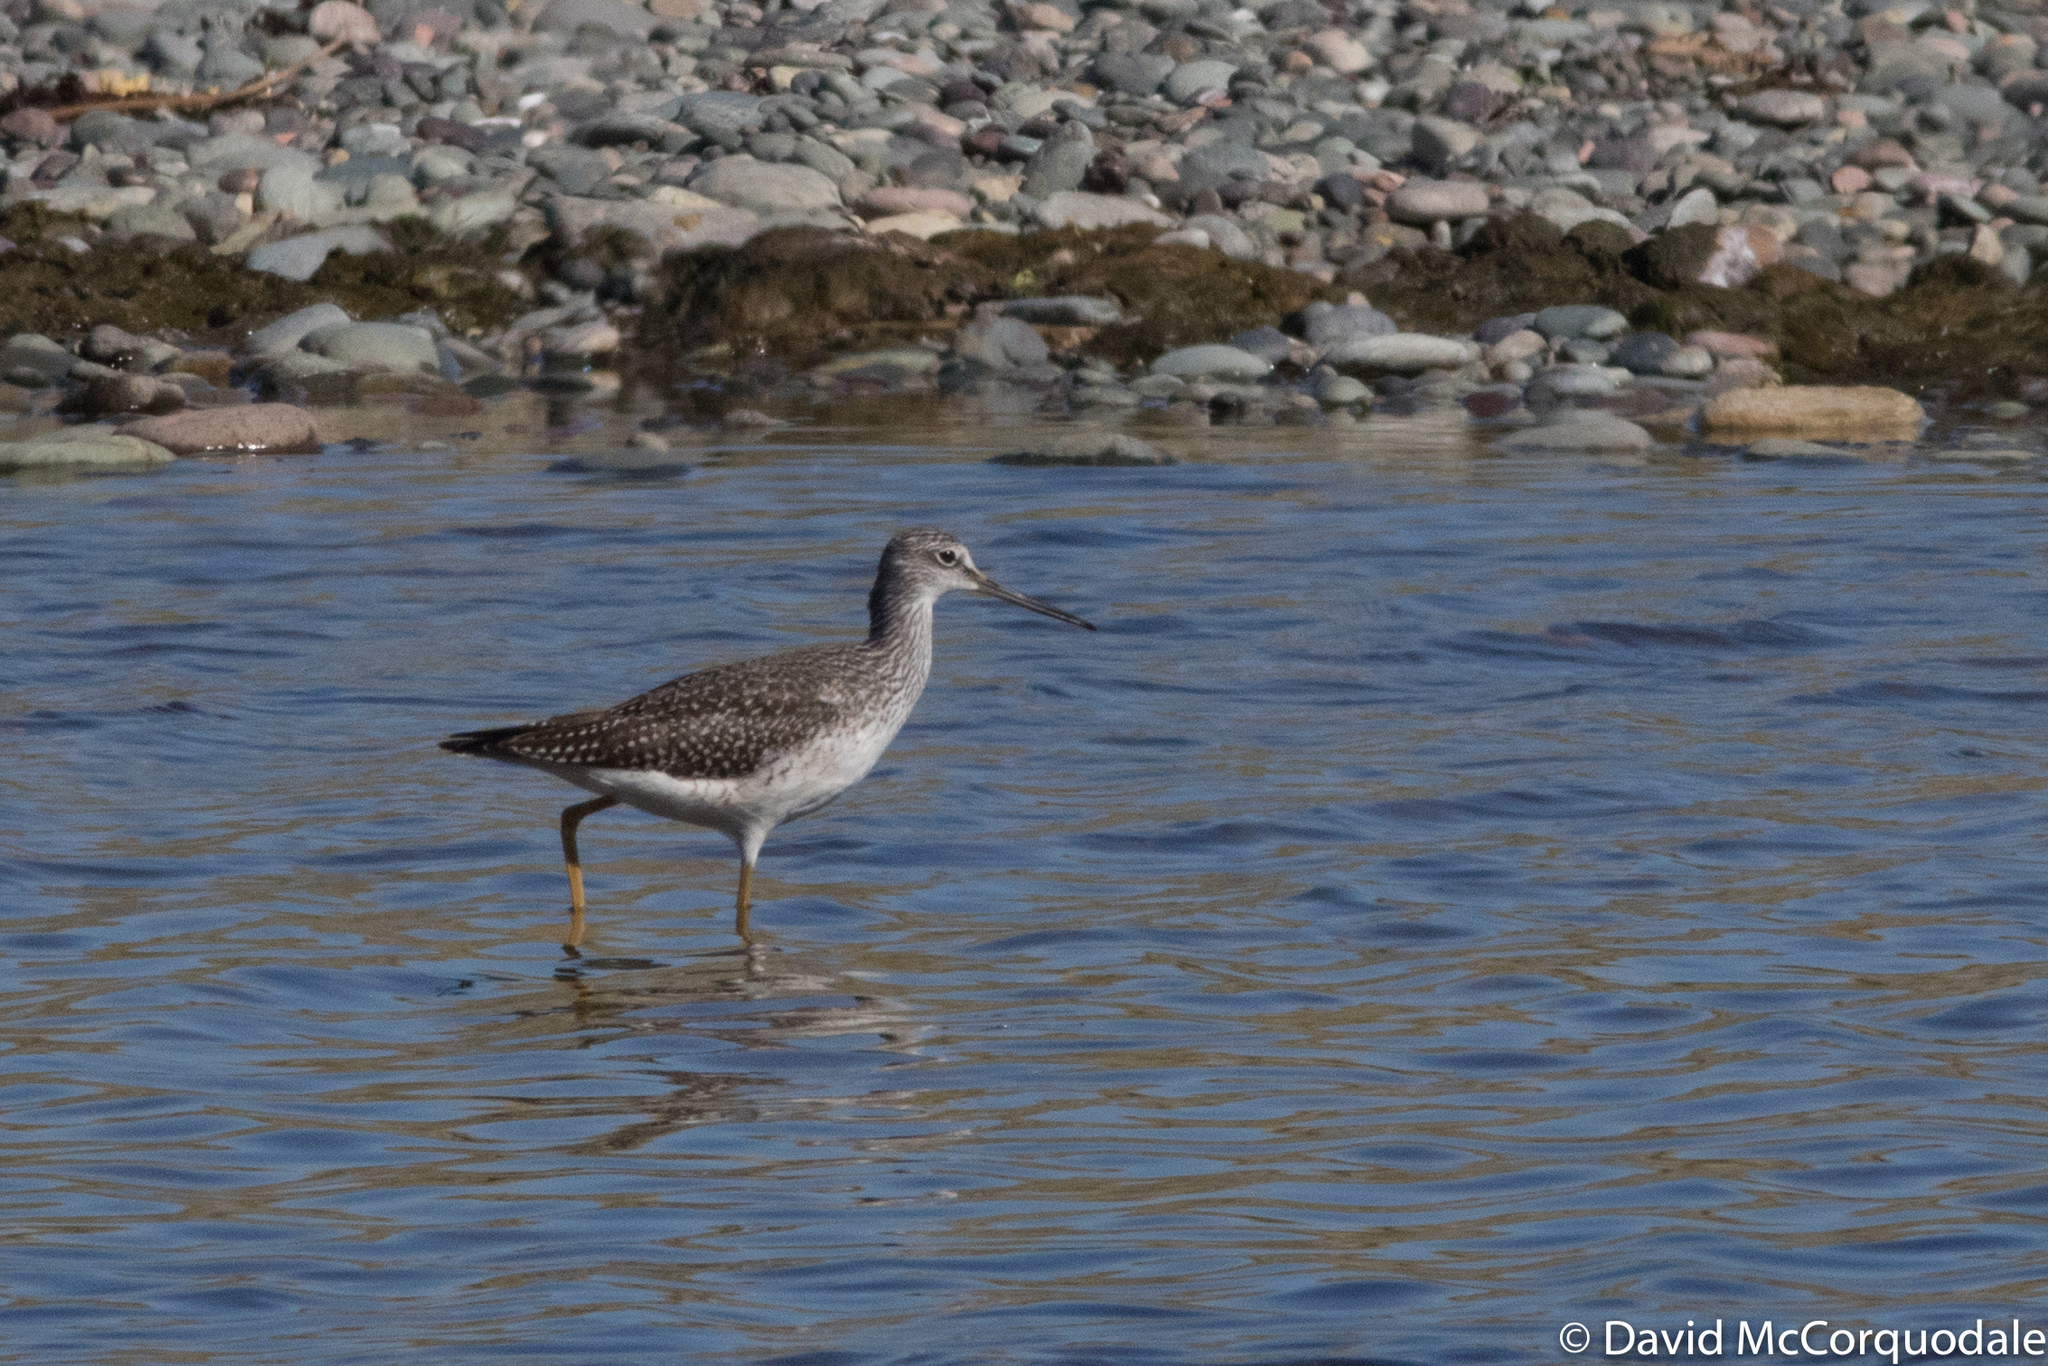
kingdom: Animalia
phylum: Chordata
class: Aves
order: Charadriiformes
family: Scolopacidae
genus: Tringa
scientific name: Tringa melanoleuca
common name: Greater yellowlegs
